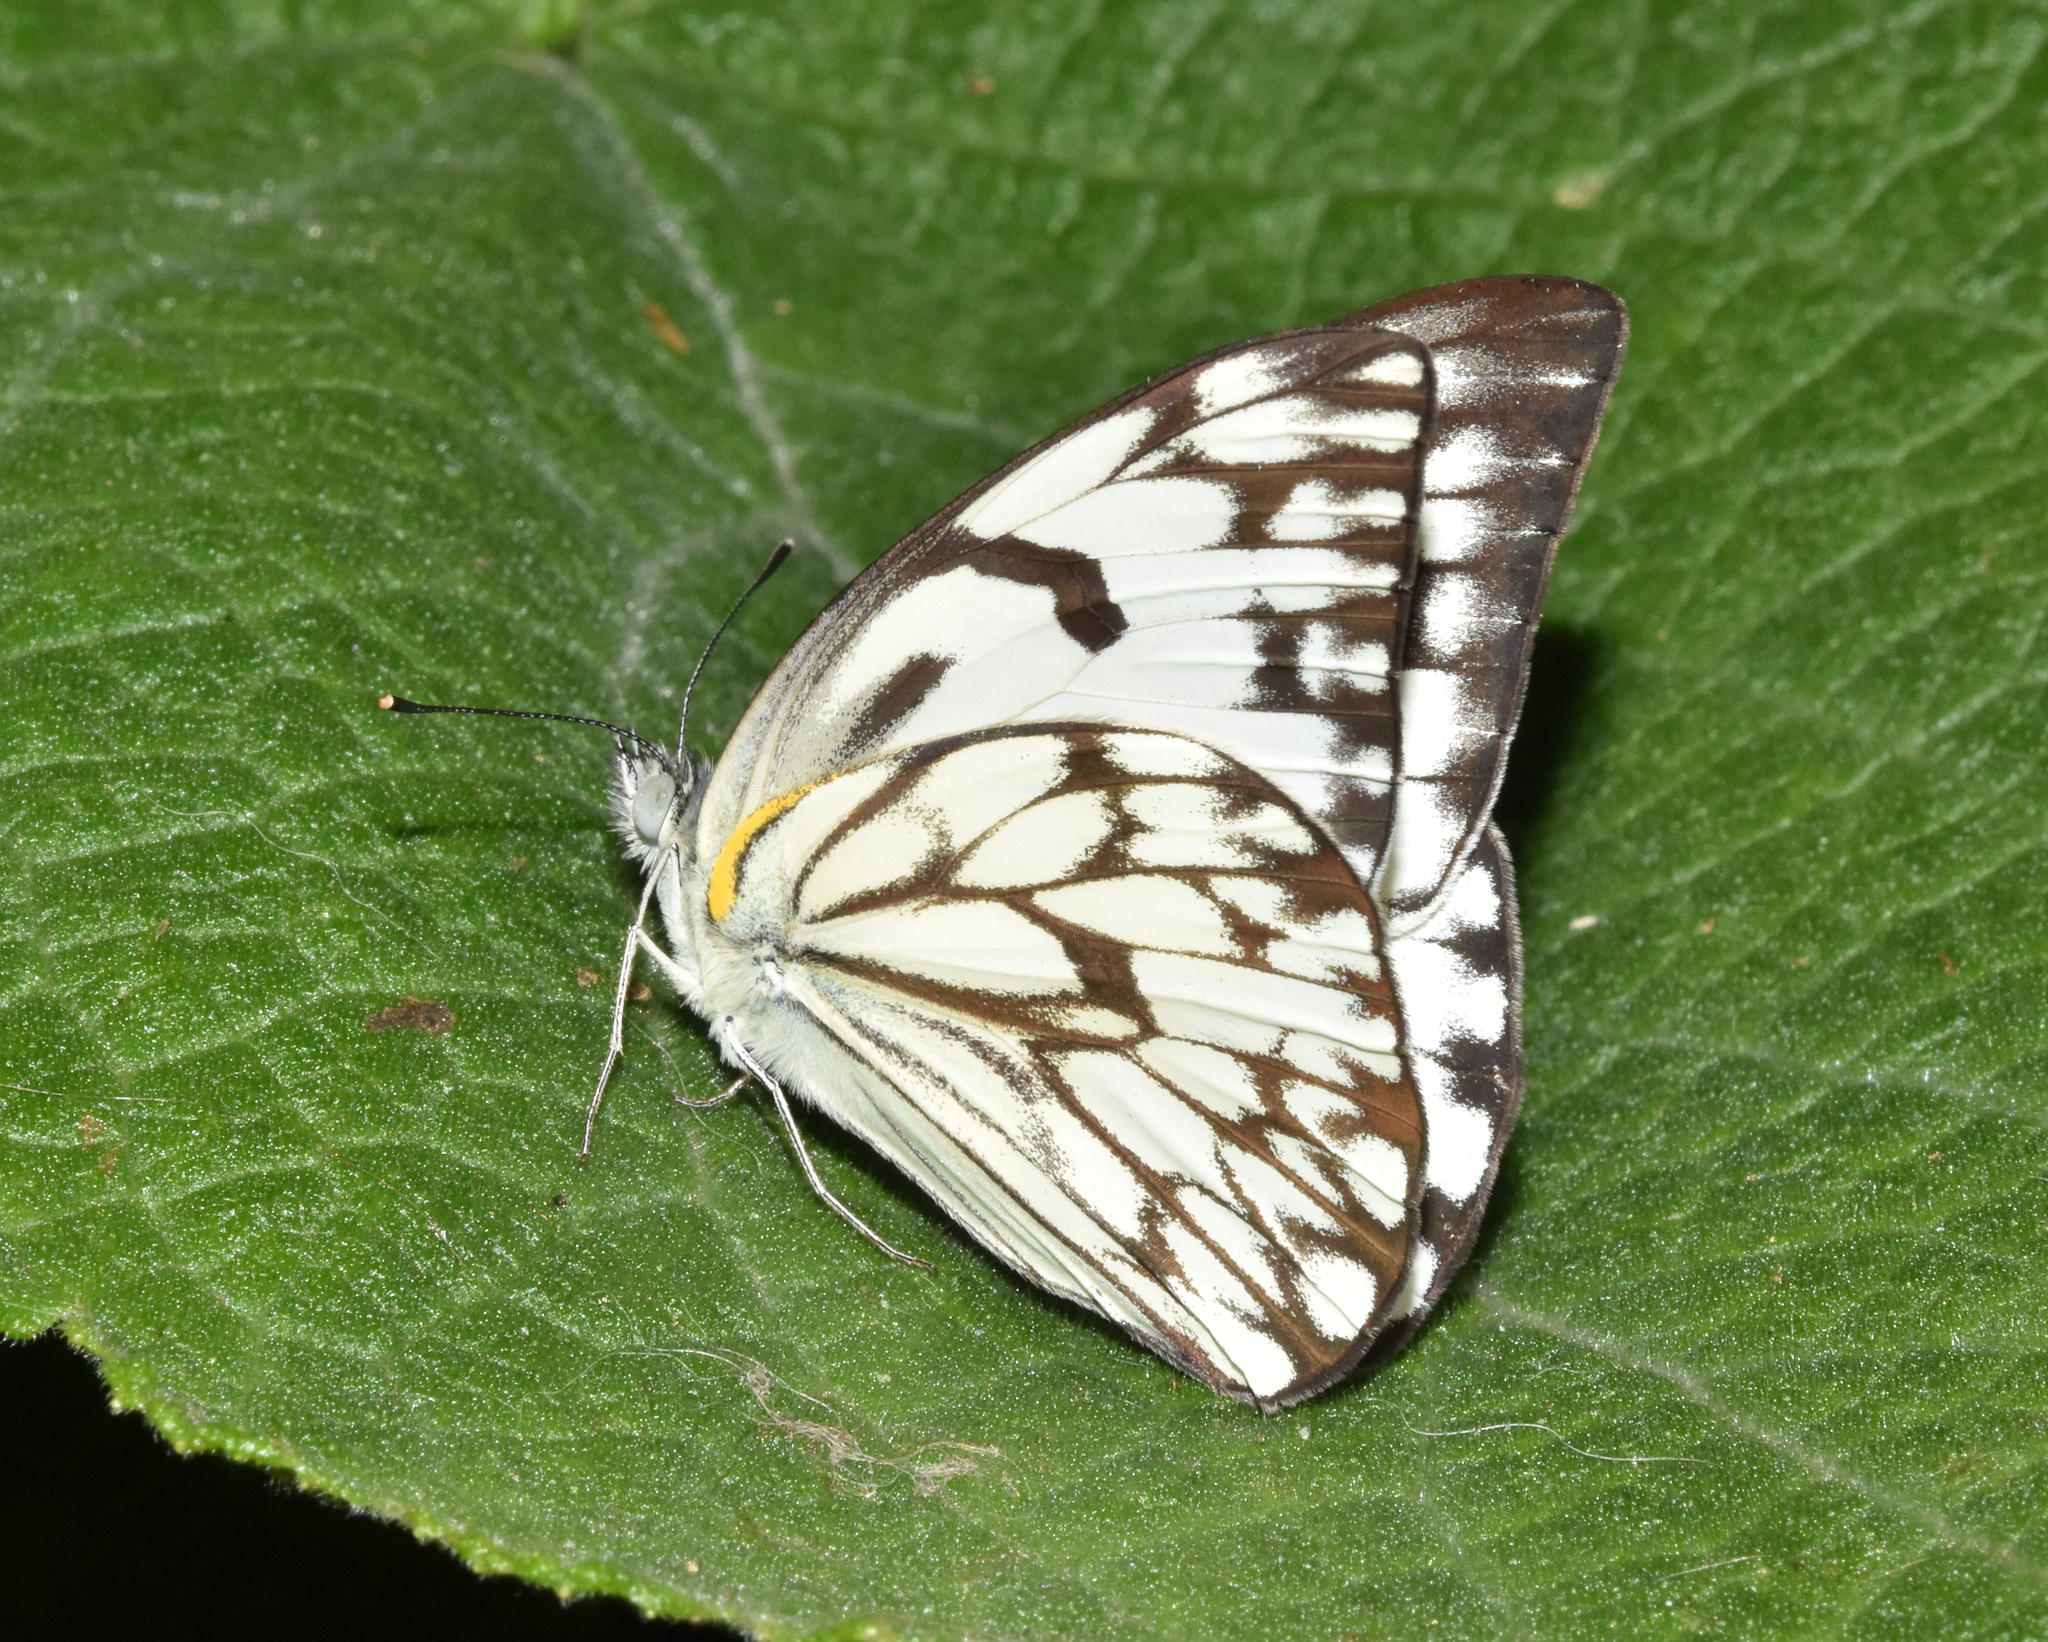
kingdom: Animalia
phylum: Arthropoda
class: Insecta
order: Lepidoptera
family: Pieridae
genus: Belenois
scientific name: Belenois gidica
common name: Pointed caper white
